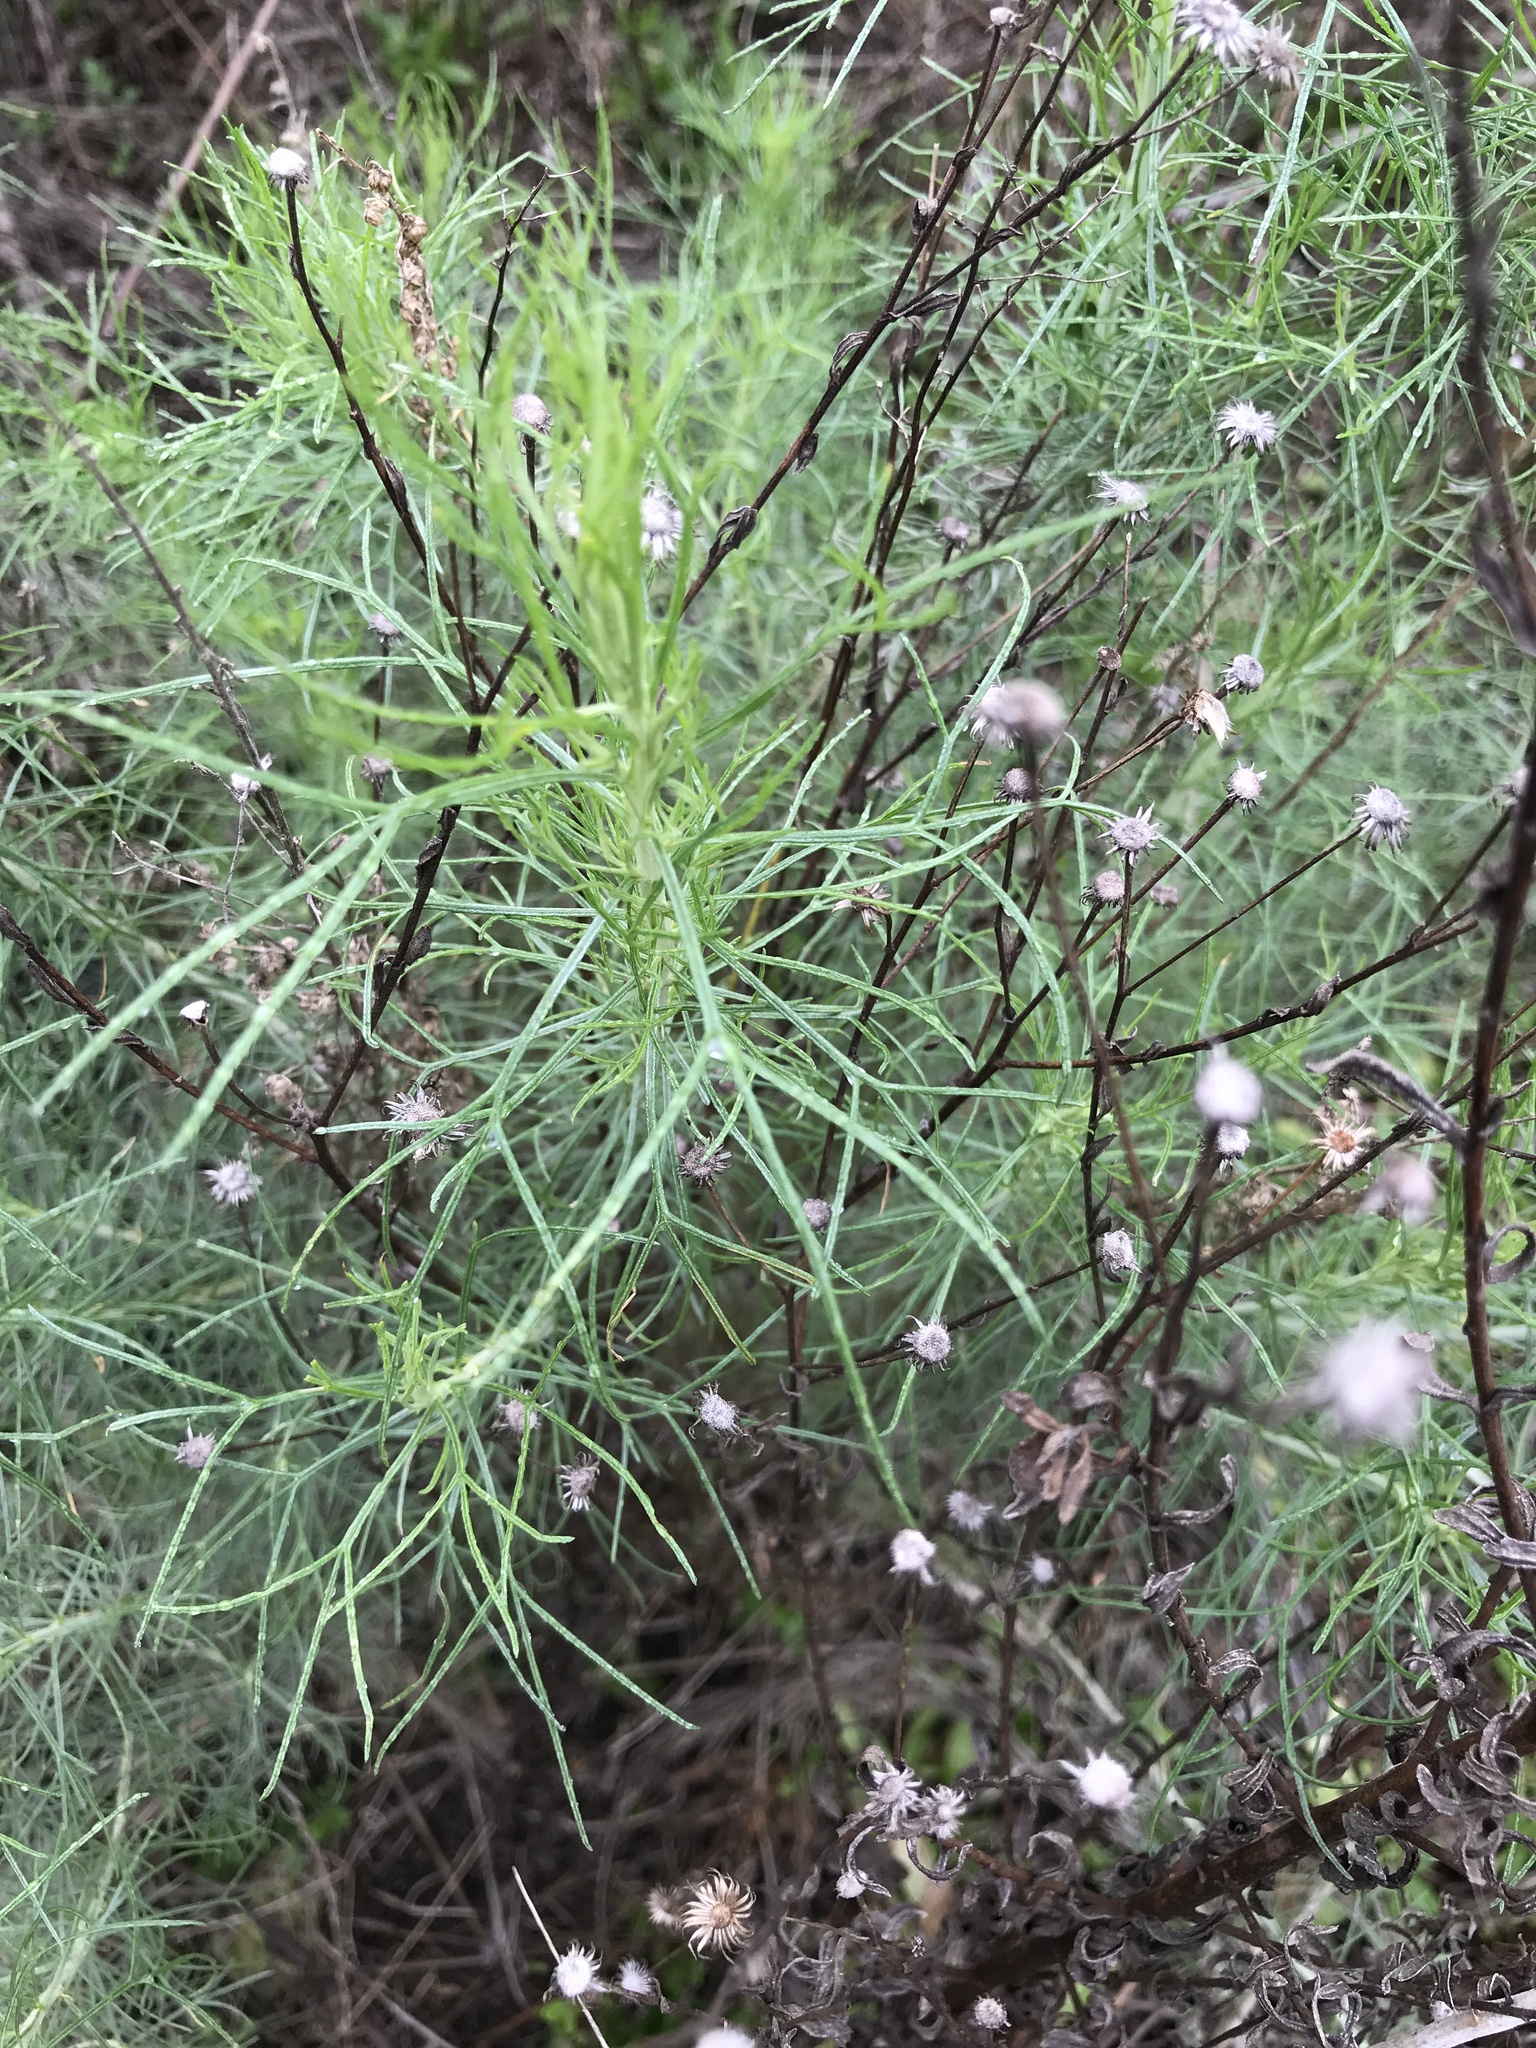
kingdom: Plantae
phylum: Tracheophyta
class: Magnoliopsida
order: Asterales
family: Asteraceae
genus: Artemisia
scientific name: Artemisia californica
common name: California sagebrush
